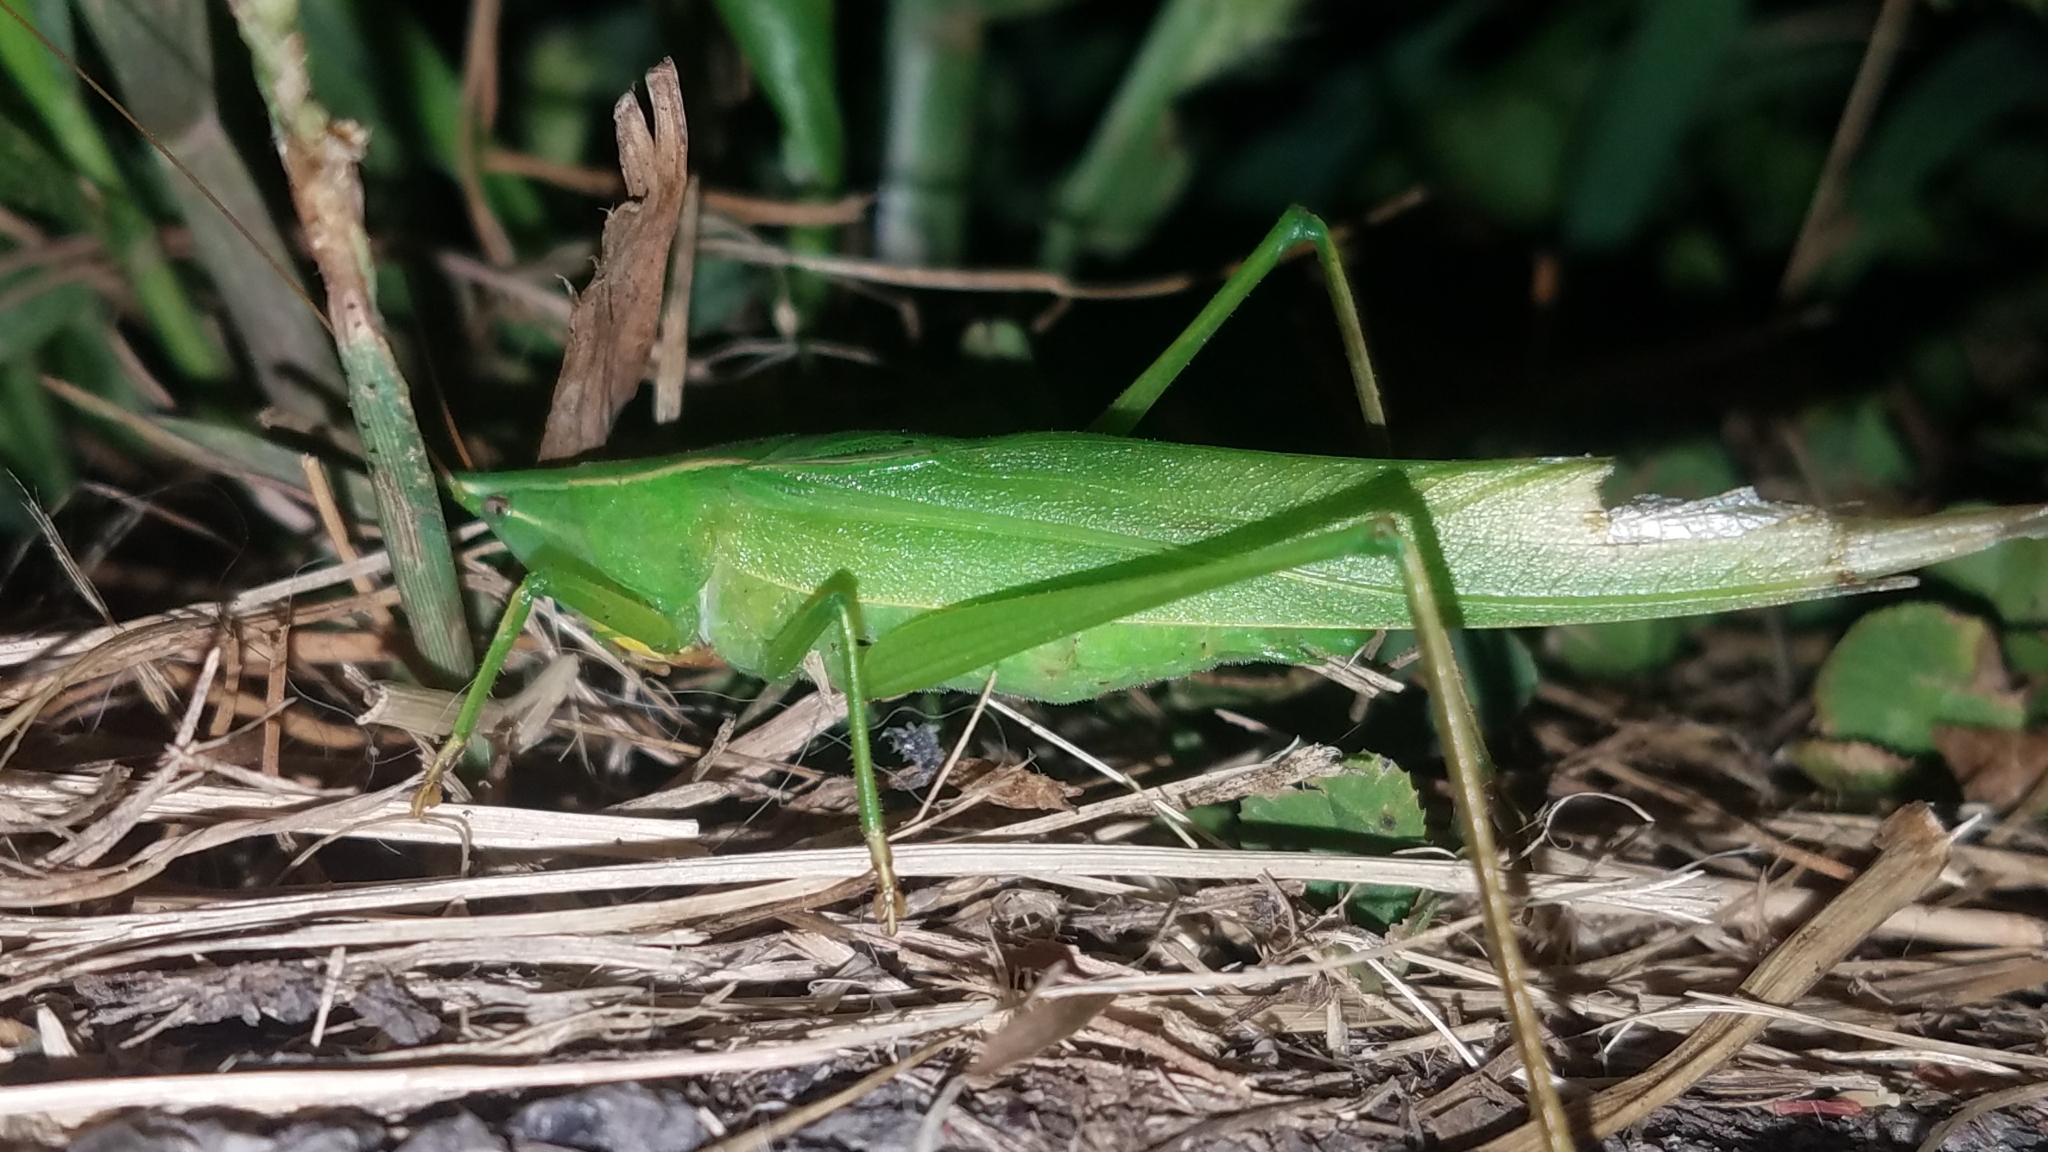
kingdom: Animalia
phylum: Arthropoda
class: Insecta
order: Orthoptera
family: Tettigoniidae
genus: Neoconocephalus
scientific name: Neoconocephalus ensiger
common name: Swordbearer
